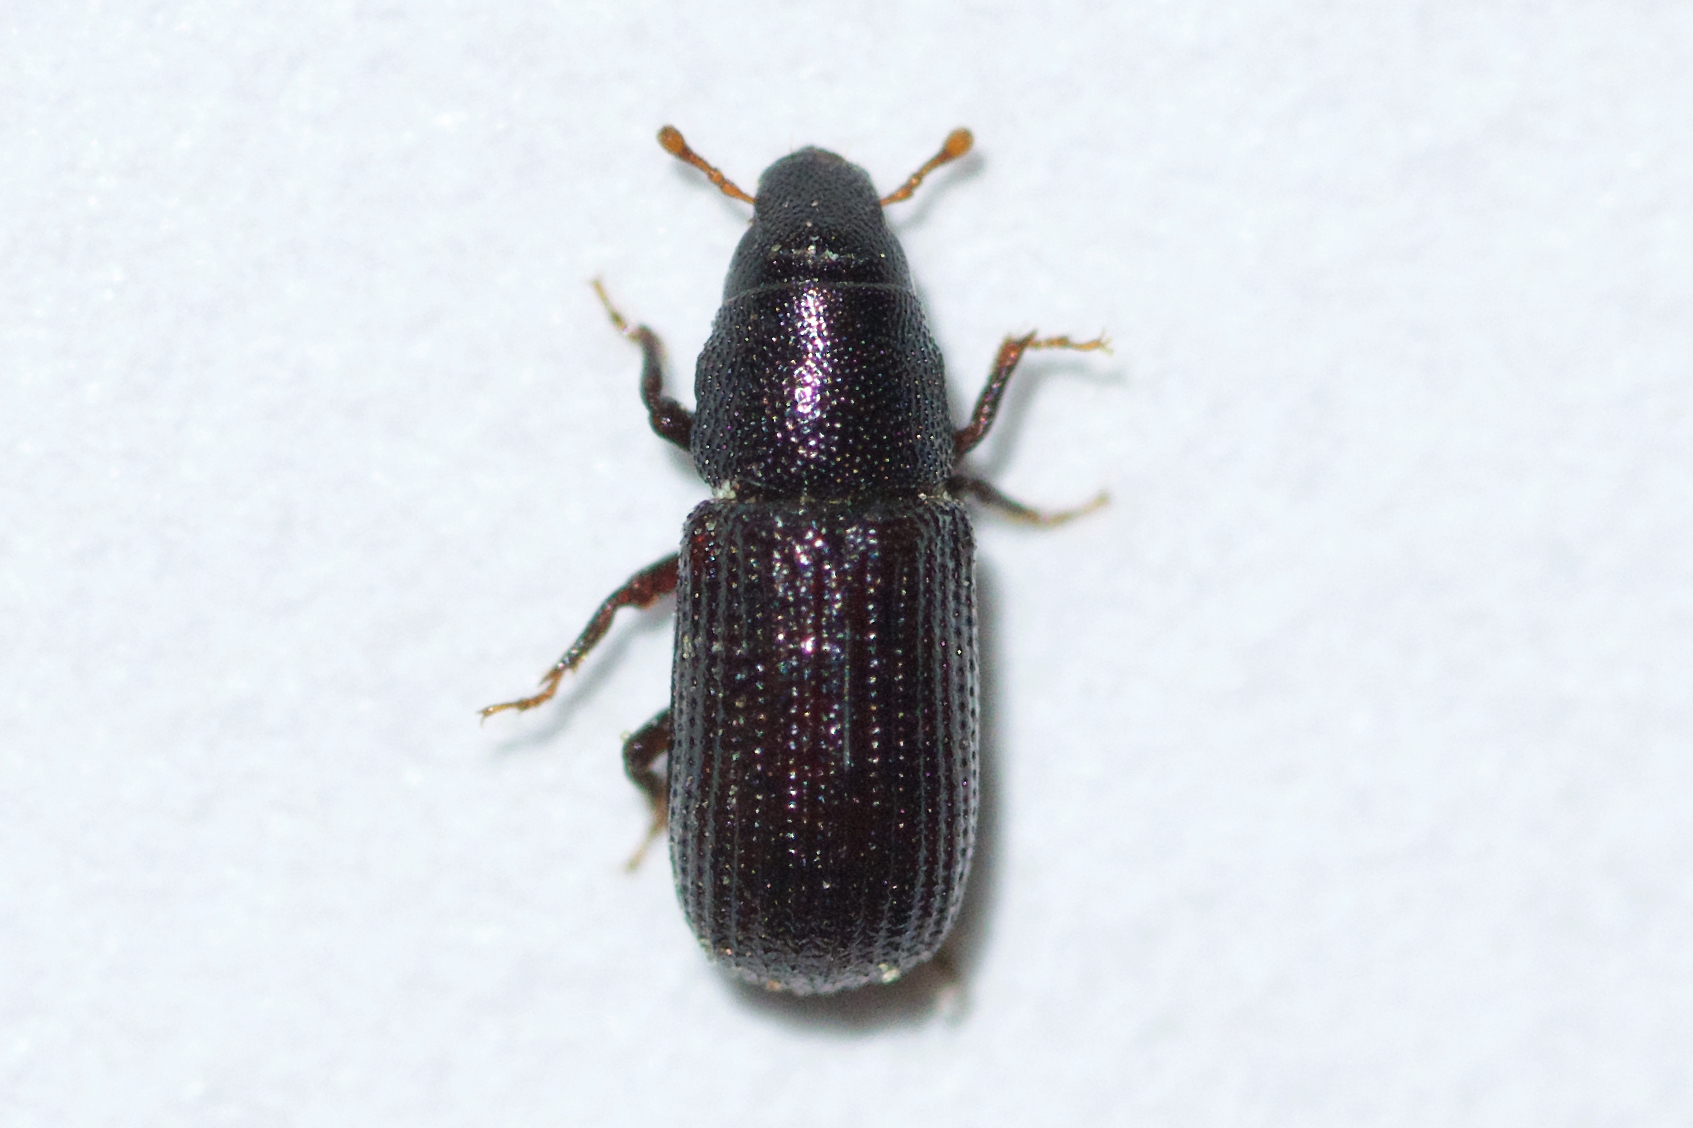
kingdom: Animalia
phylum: Arthropoda
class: Insecta
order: Coleoptera
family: Curculionidae
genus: Stenoscelis
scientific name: Stenoscelis brevis
